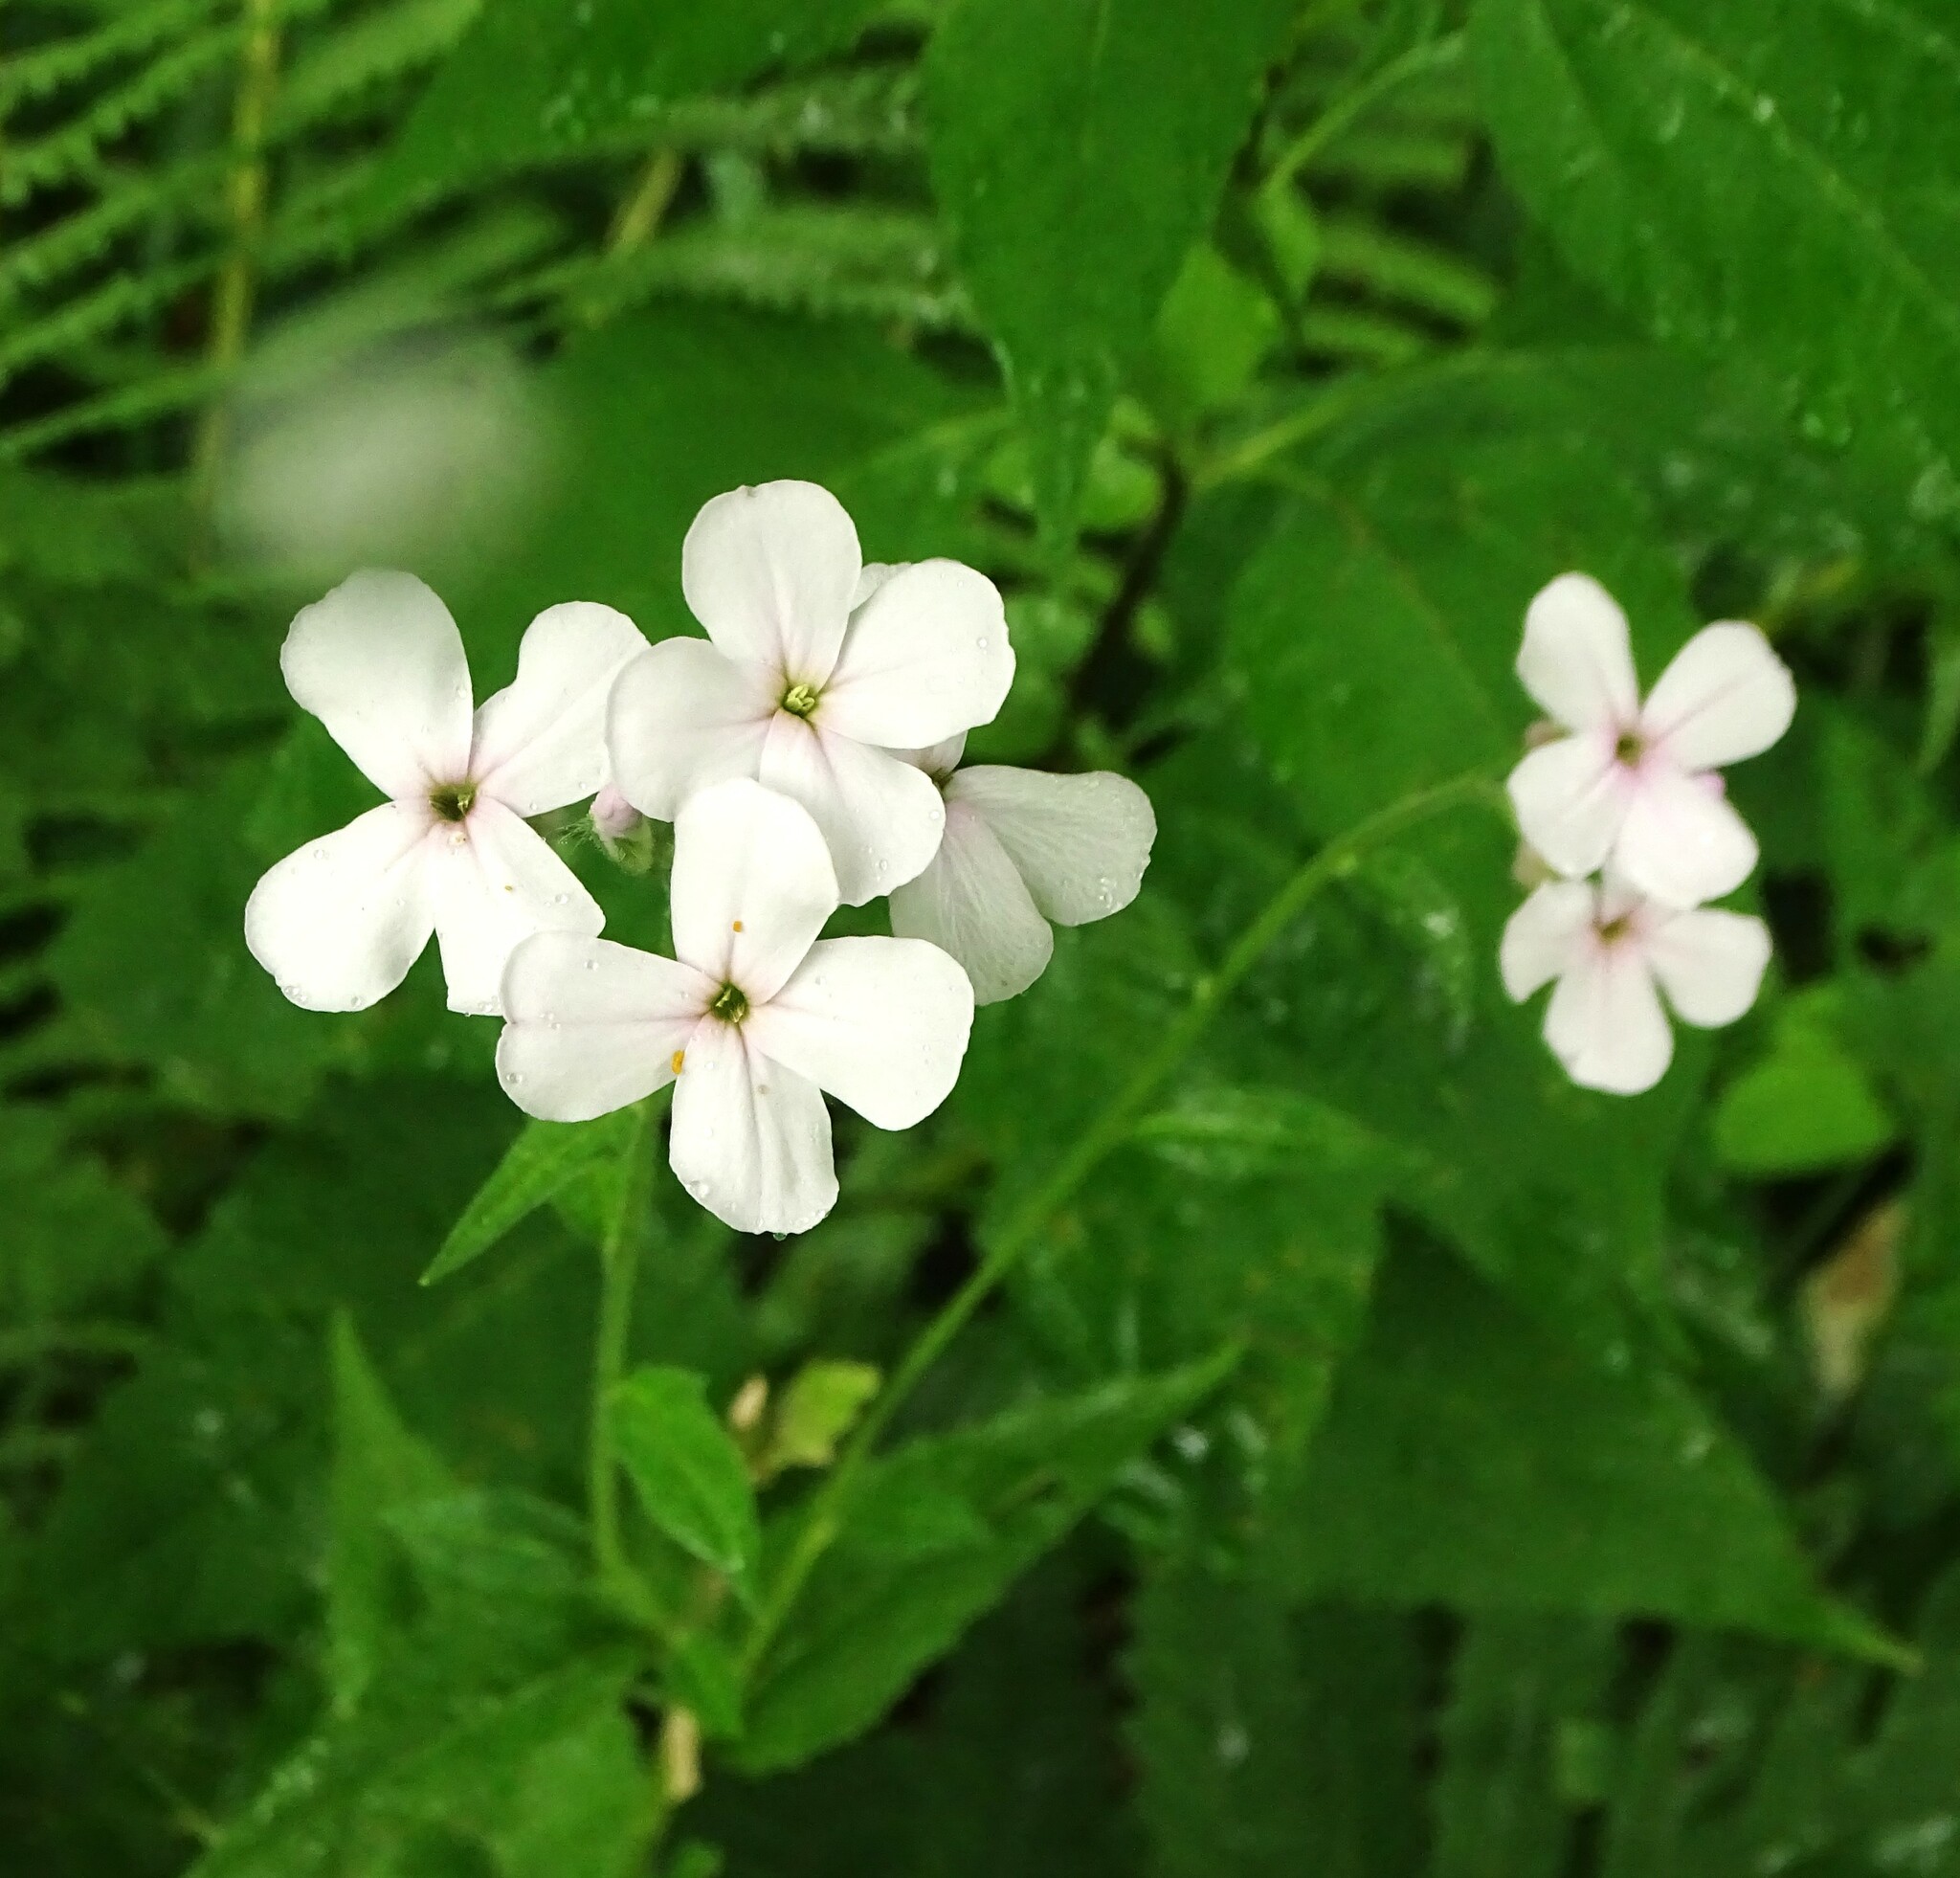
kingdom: Plantae
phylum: Tracheophyta
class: Magnoliopsida
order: Brassicales
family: Brassicaceae
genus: Hesperis
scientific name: Hesperis matronalis
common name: Dame's-violet
